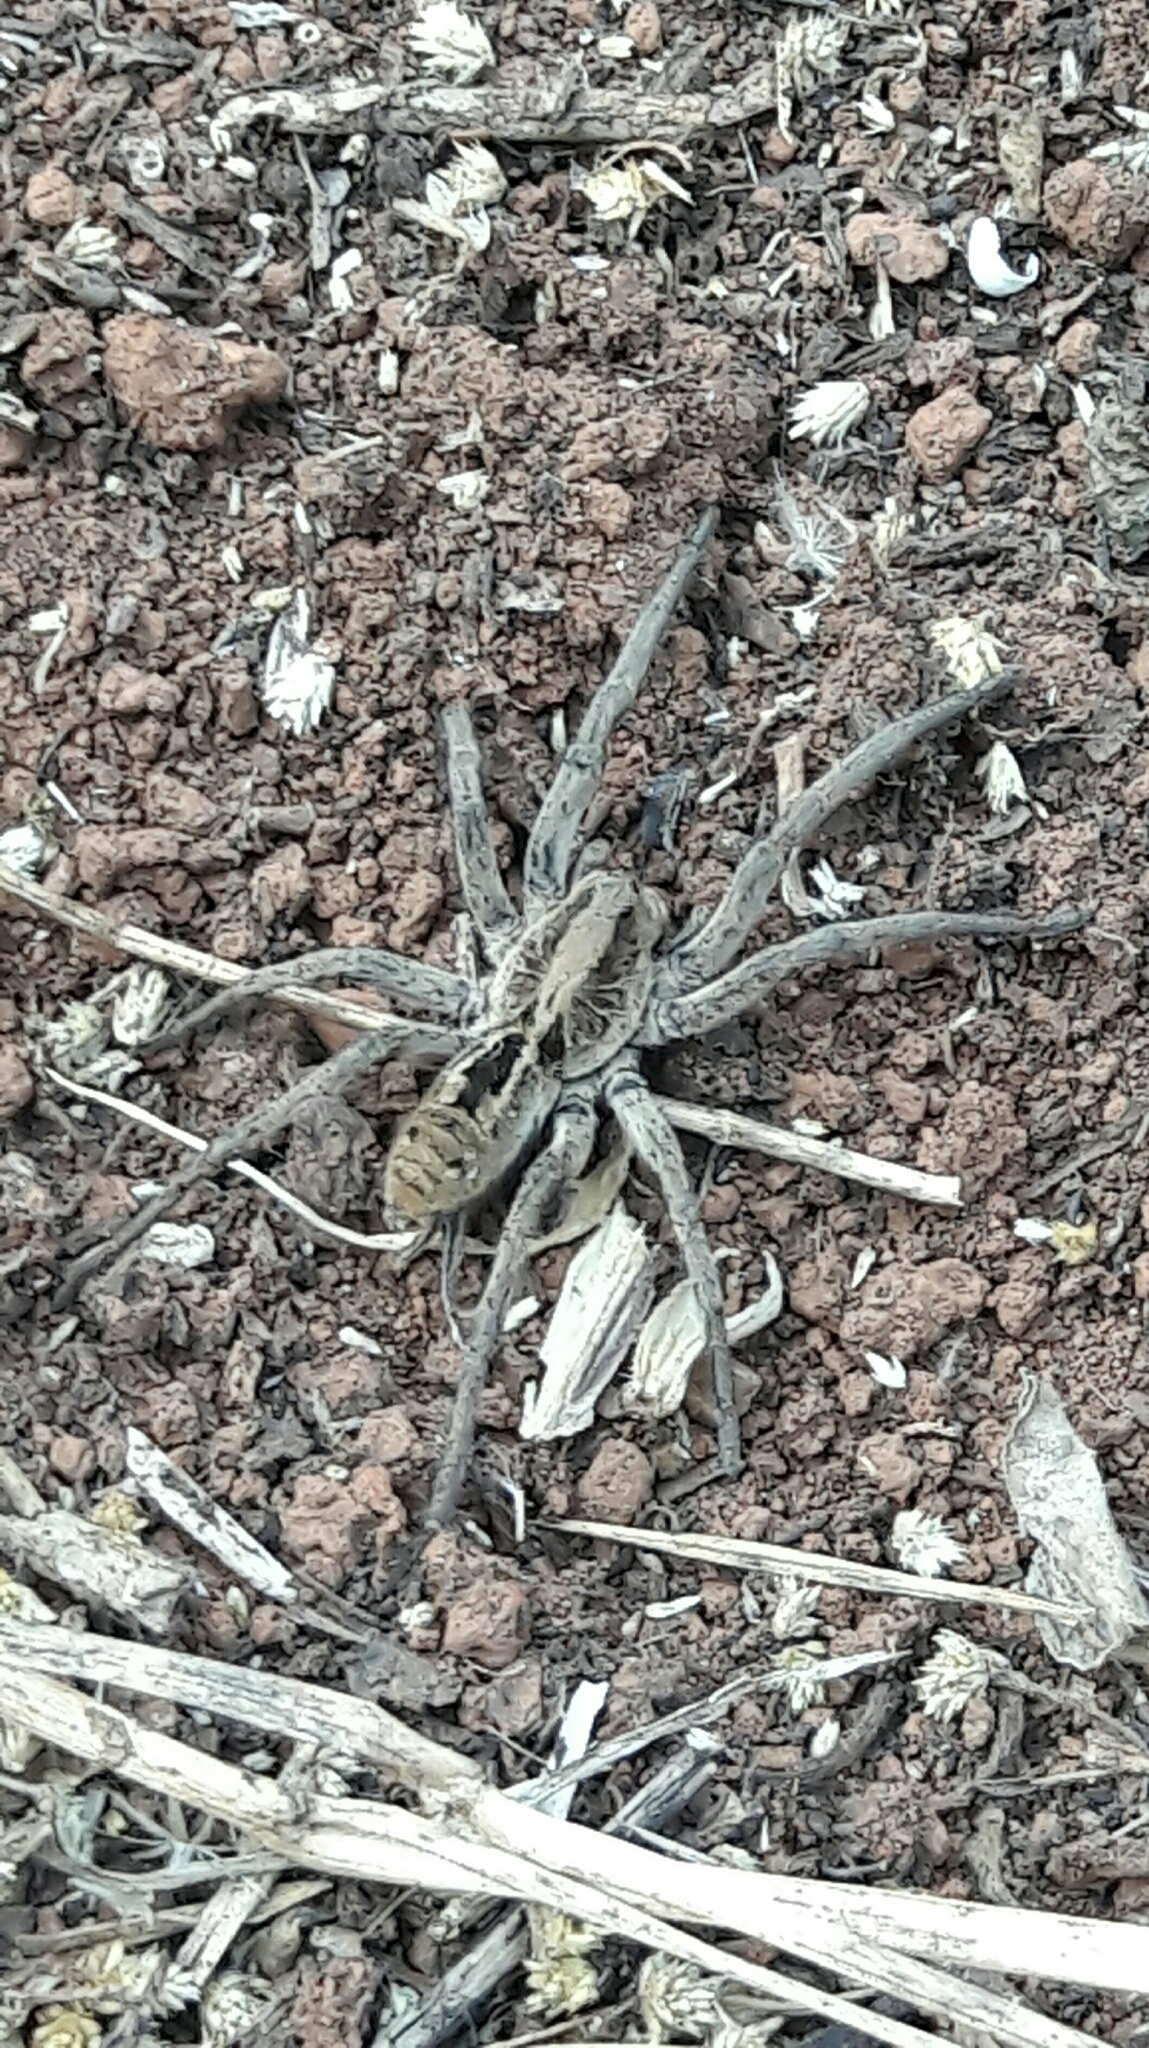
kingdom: Animalia
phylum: Arthropoda
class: Arachnida
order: Araneae
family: Lycosidae
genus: Lycosa
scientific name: Lycosa erythrognatha
